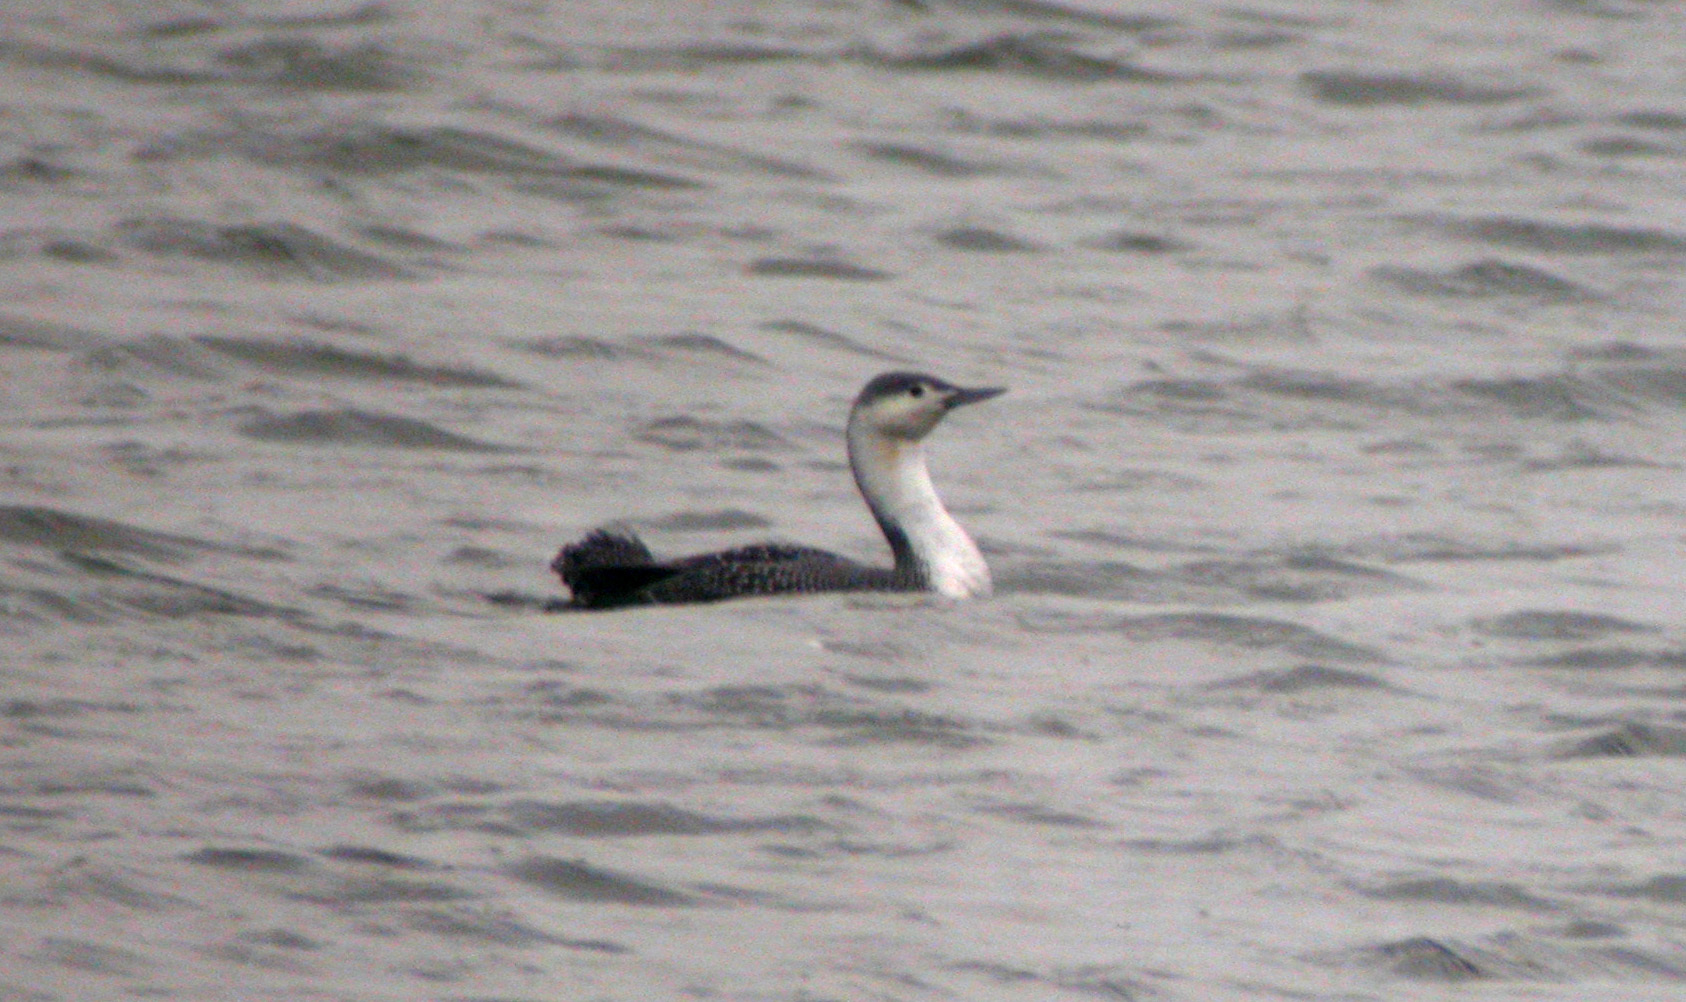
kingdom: Animalia
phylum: Chordata
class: Aves
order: Gaviiformes
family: Gaviidae
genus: Gavia
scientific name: Gavia stellata
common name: Red-throated loon
